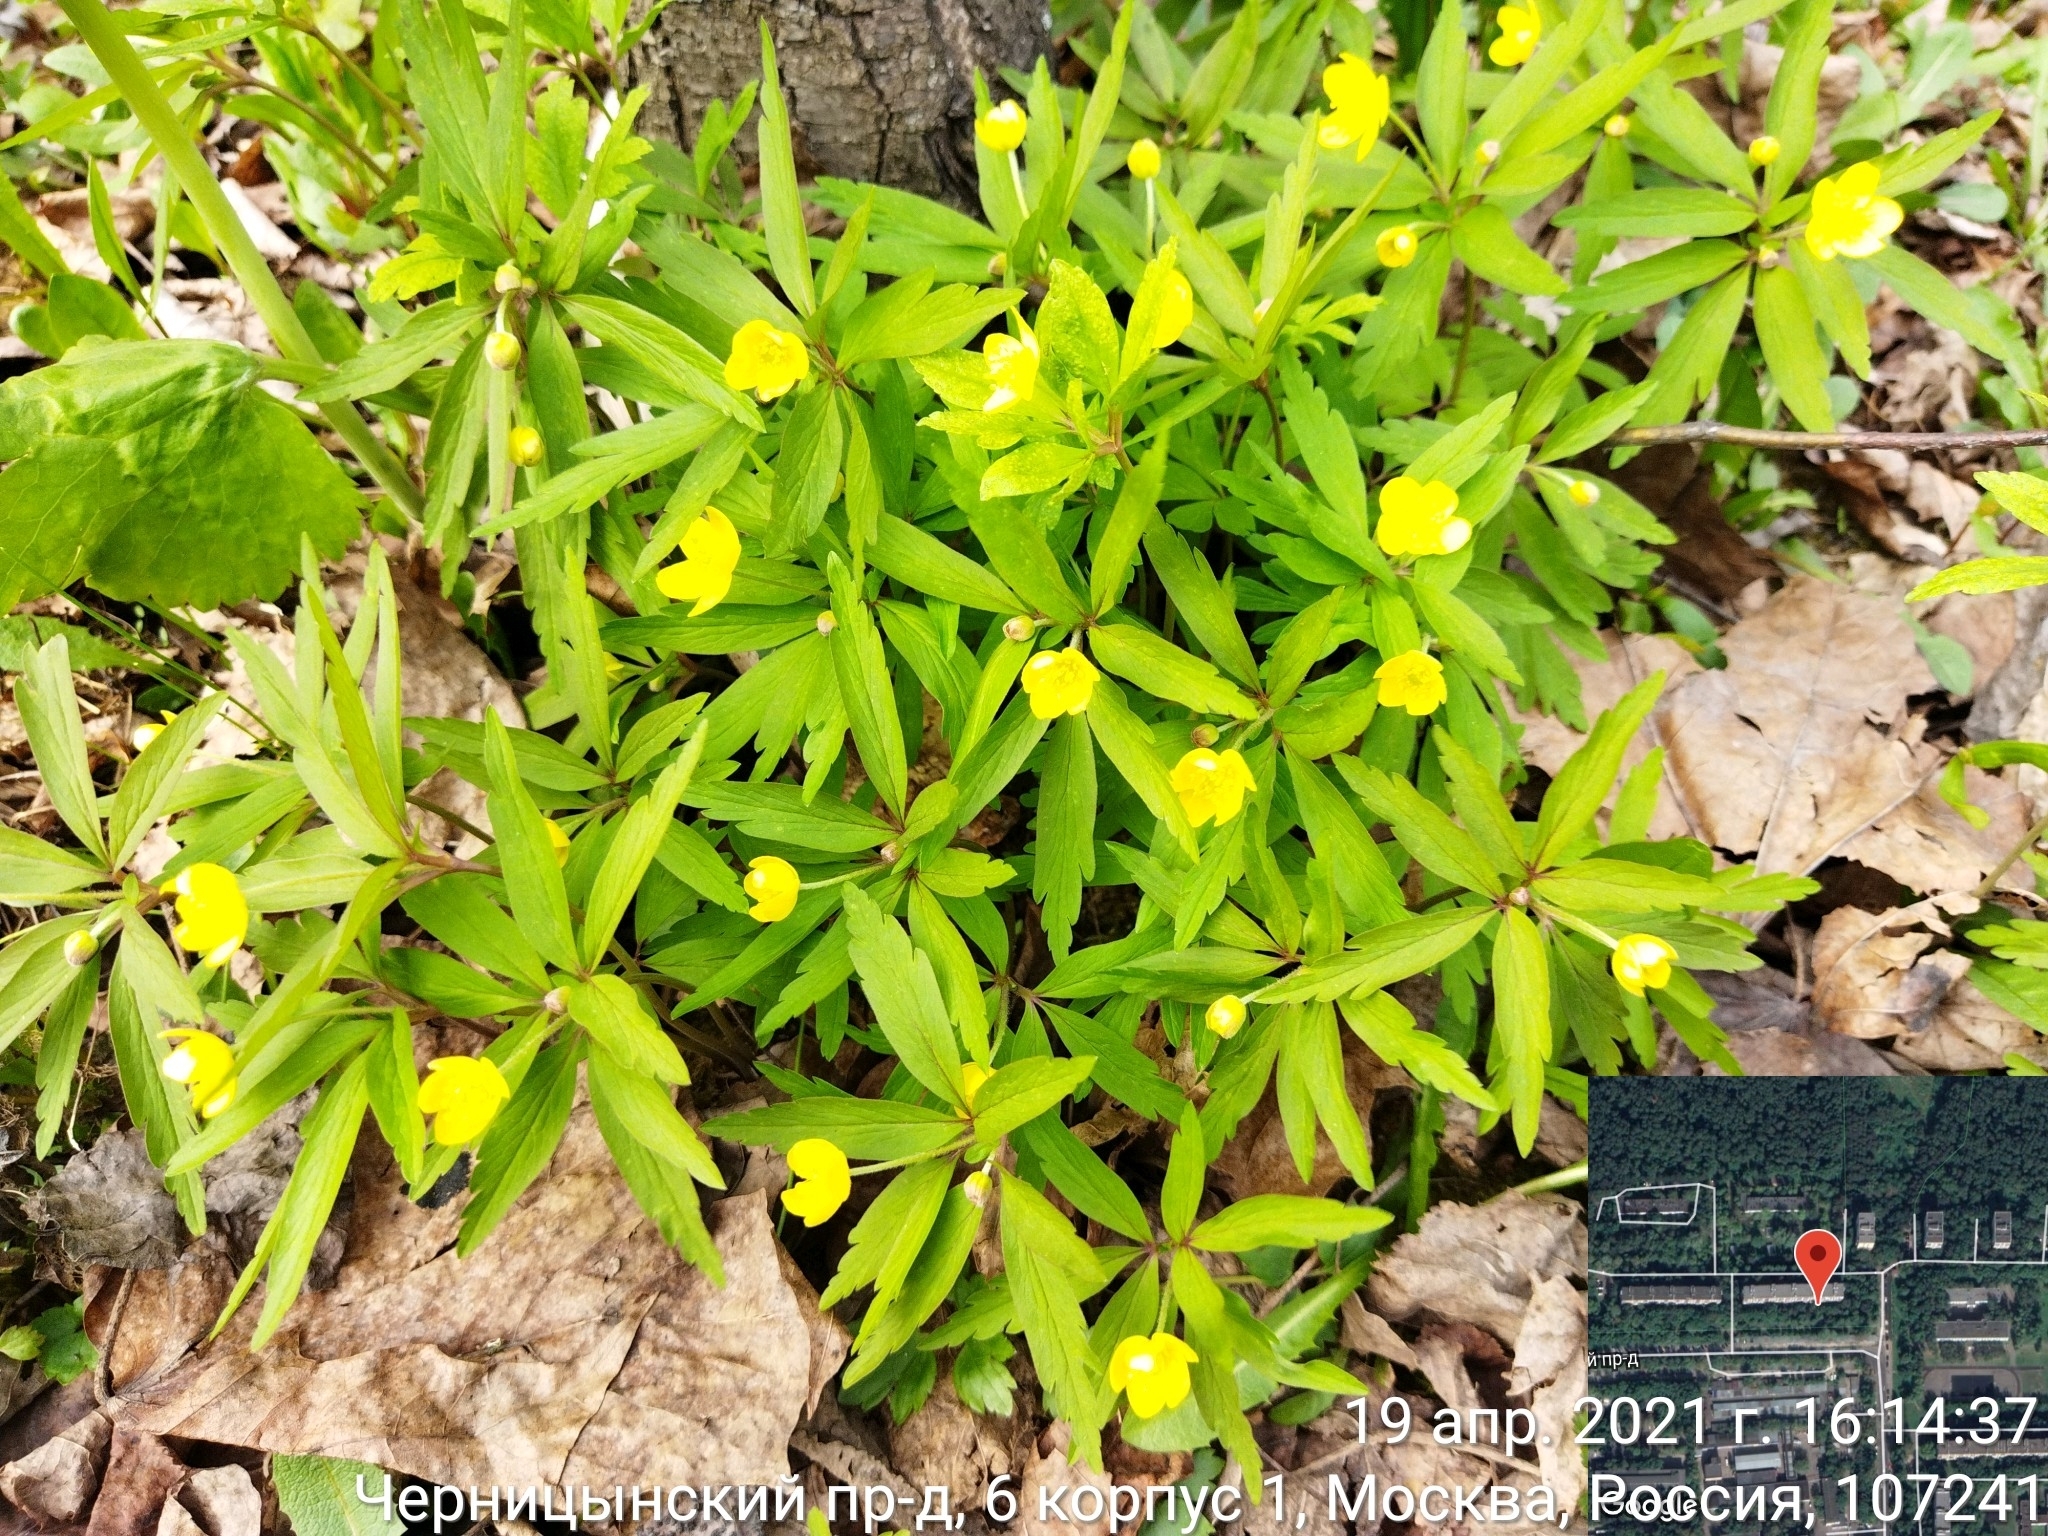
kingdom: Plantae
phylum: Tracheophyta
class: Magnoliopsida
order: Ranunculales
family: Ranunculaceae
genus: Anemone
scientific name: Anemone ranunculoides
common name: Yellow anemone
